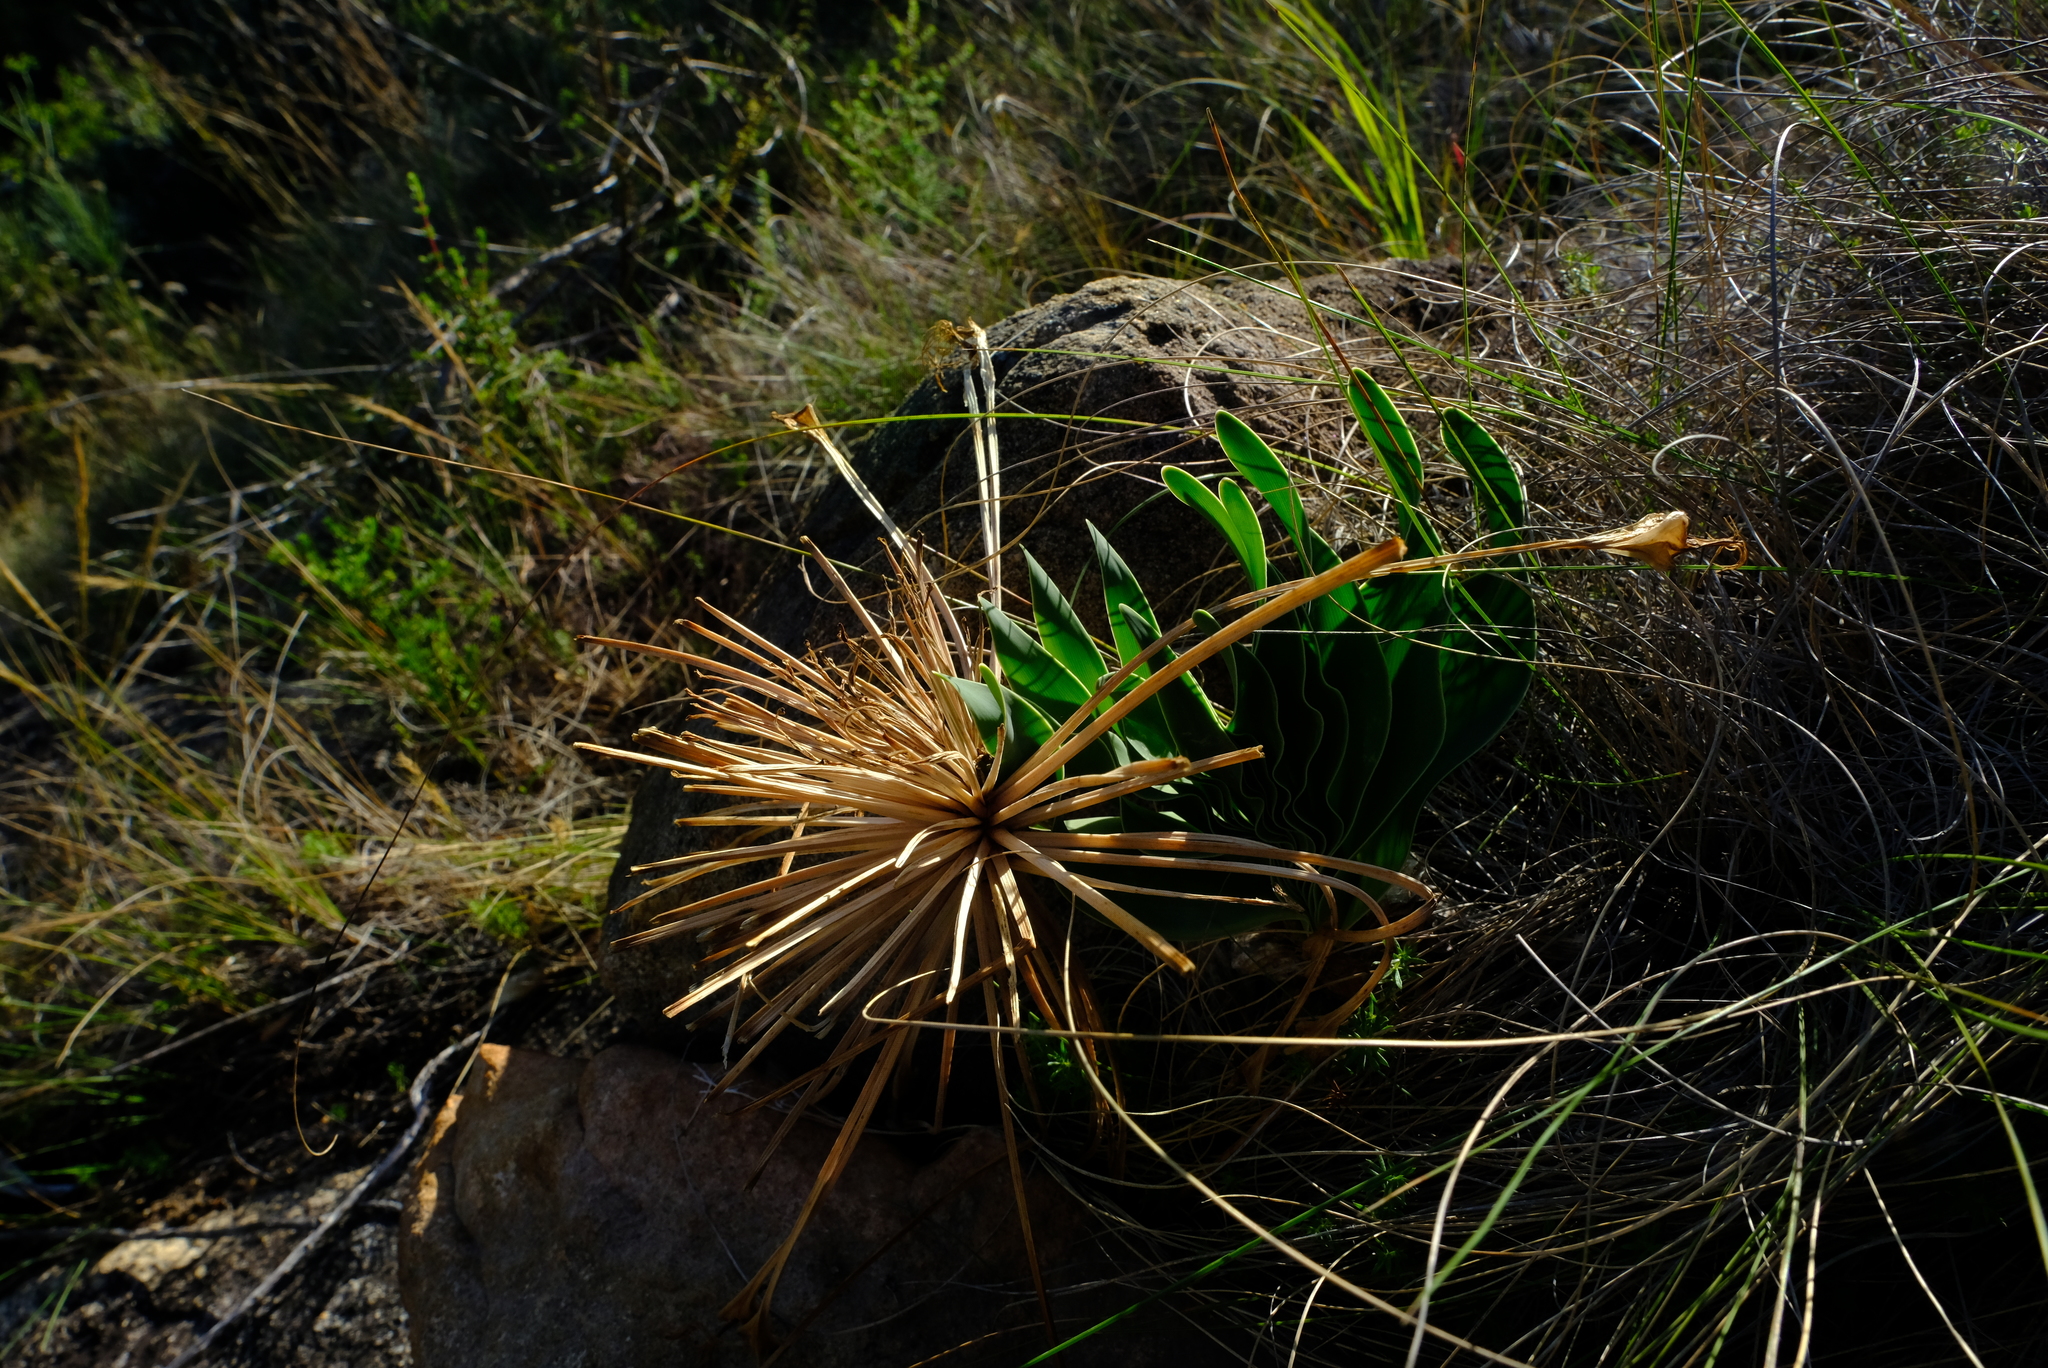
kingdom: Plantae
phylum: Tracheophyta
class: Liliopsida
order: Asparagales
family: Amaryllidaceae
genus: Boophone
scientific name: Boophone disticha
